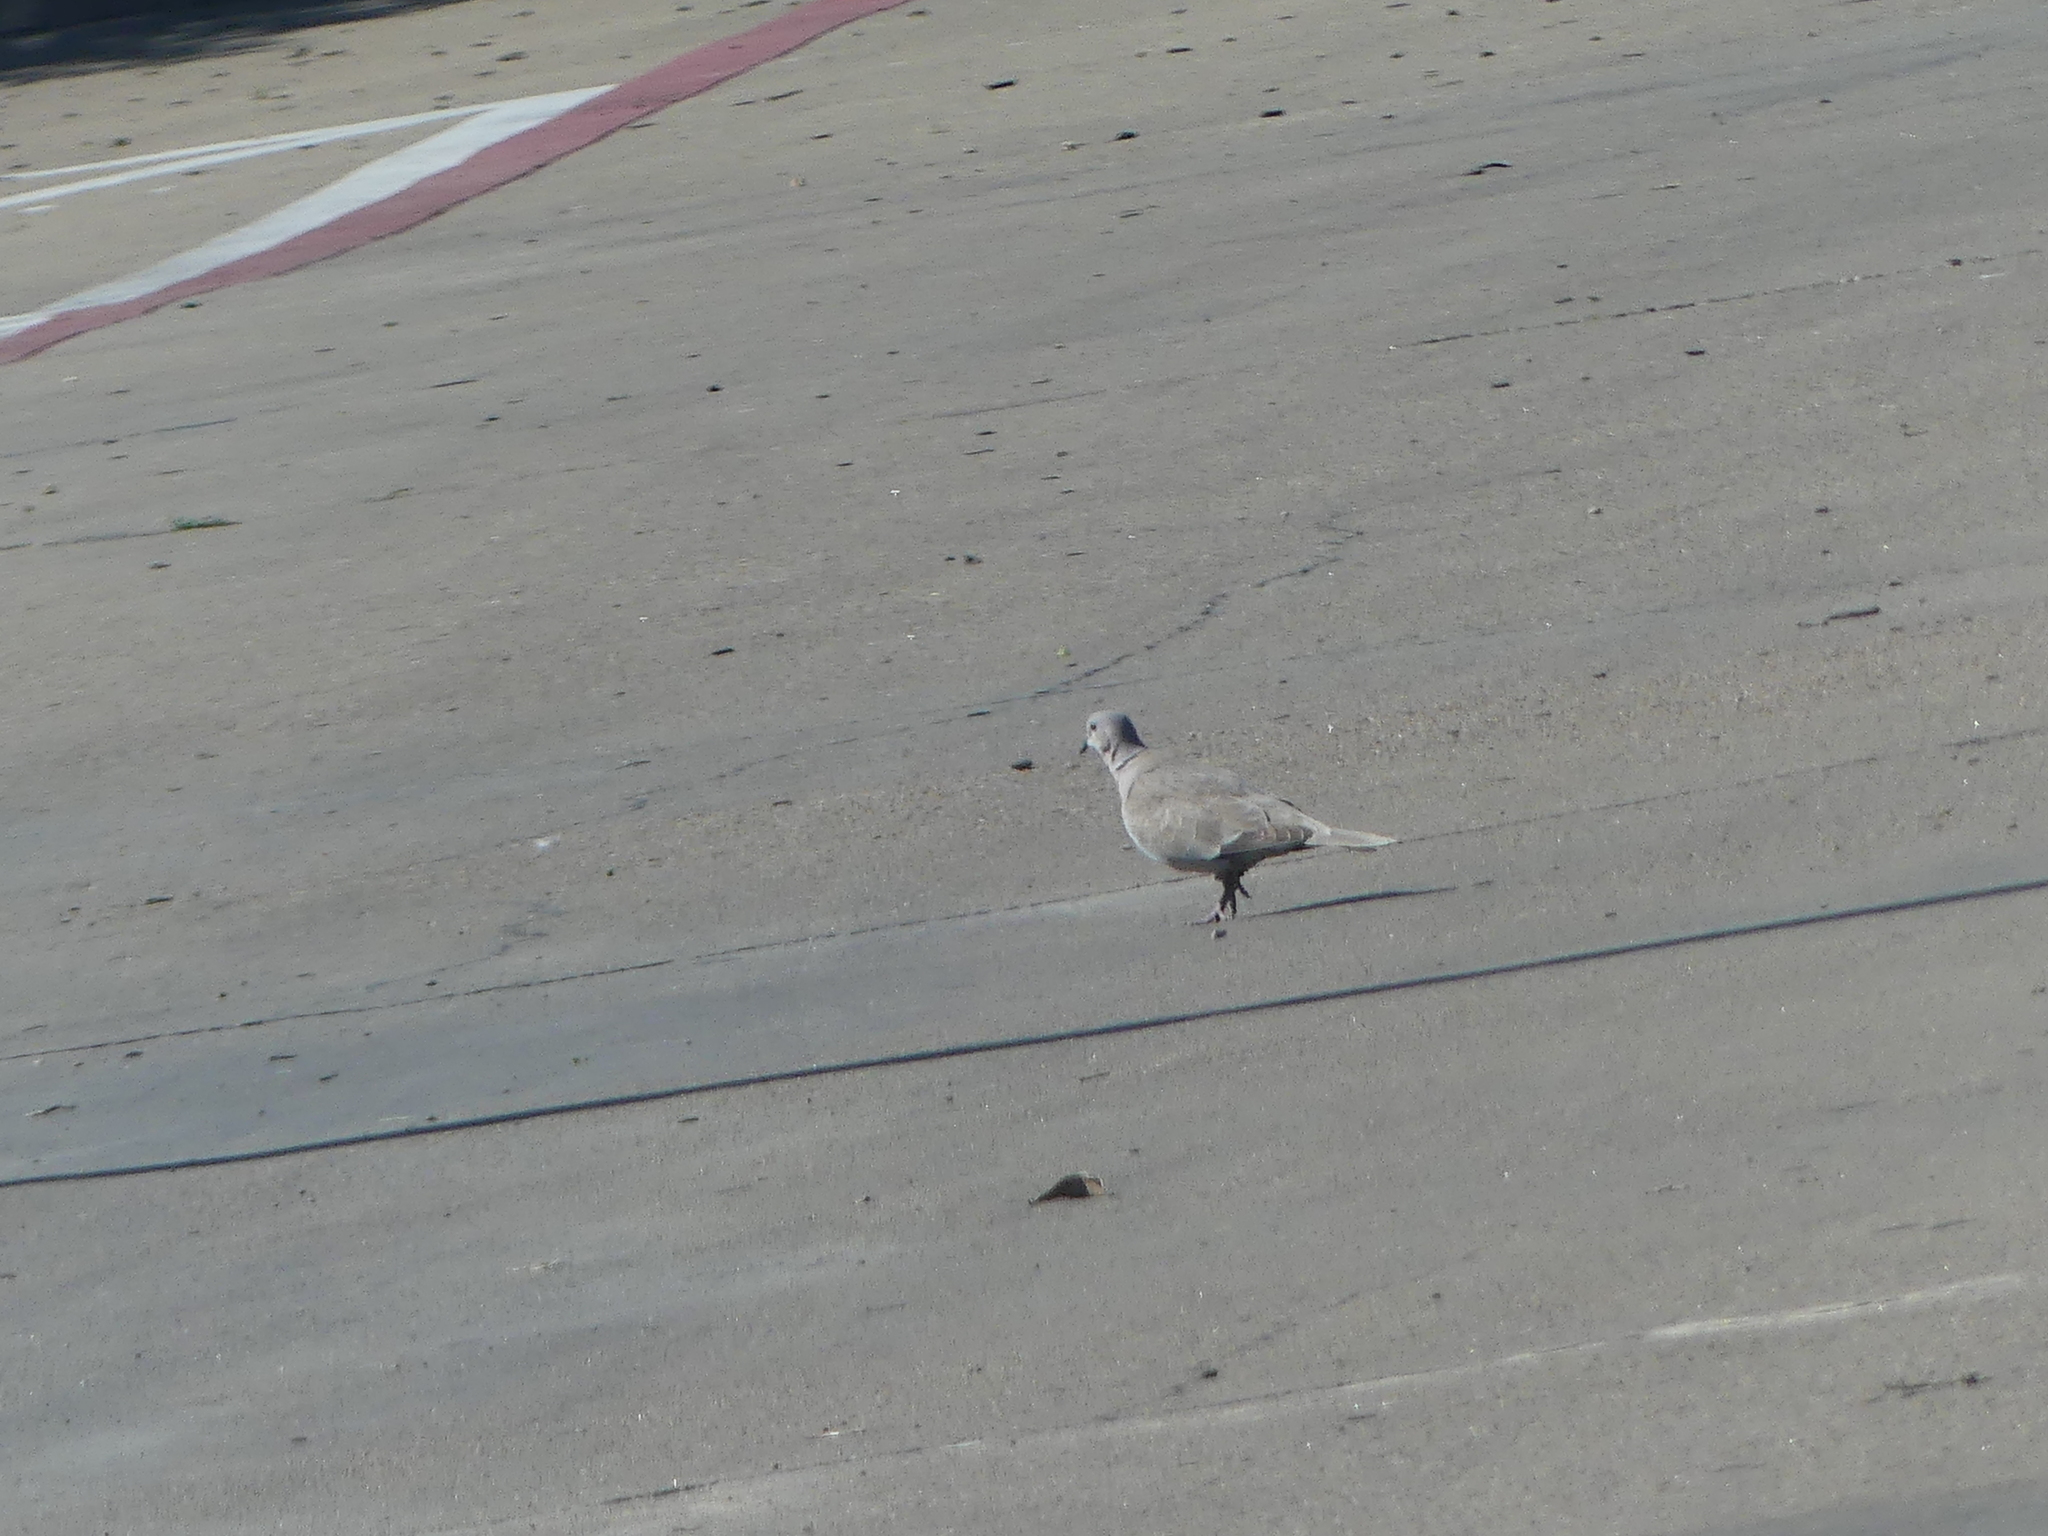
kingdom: Animalia
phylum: Chordata
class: Aves
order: Columbiformes
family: Columbidae
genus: Streptopelia
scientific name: Streptopelia decaocto
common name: Eurasian collared dove
